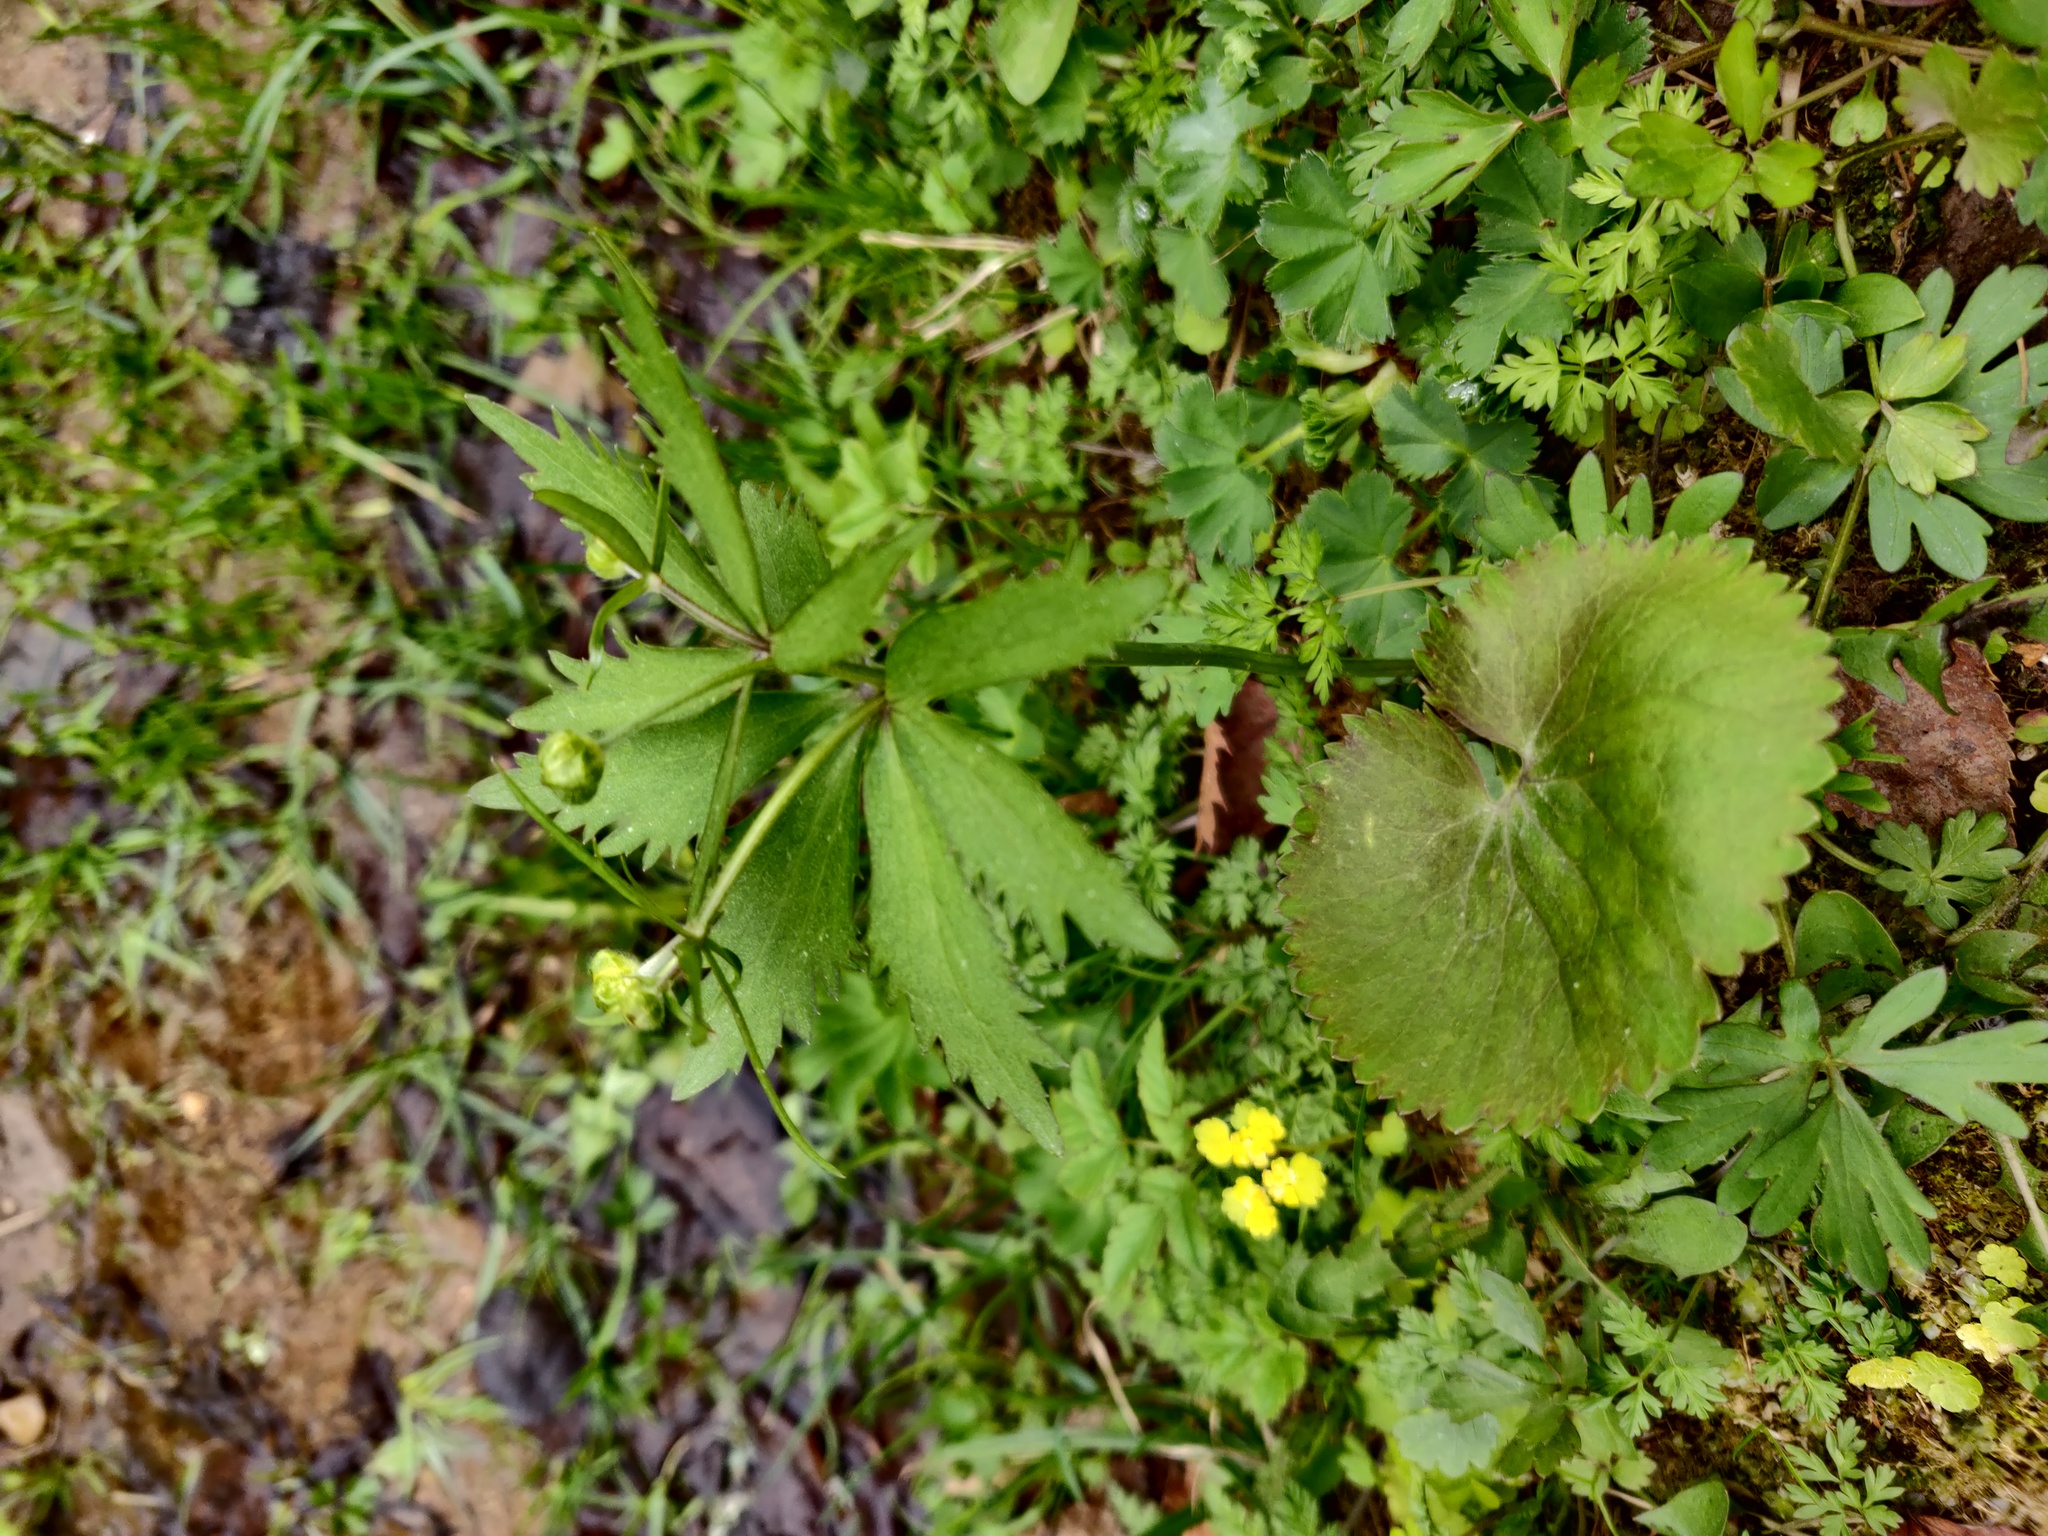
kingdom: Plantae
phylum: Tracheophyta
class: Magnoliopsida
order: Ranunculales
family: Ranunculaceae
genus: Ranunculus
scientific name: Ranunculus cassubicus
